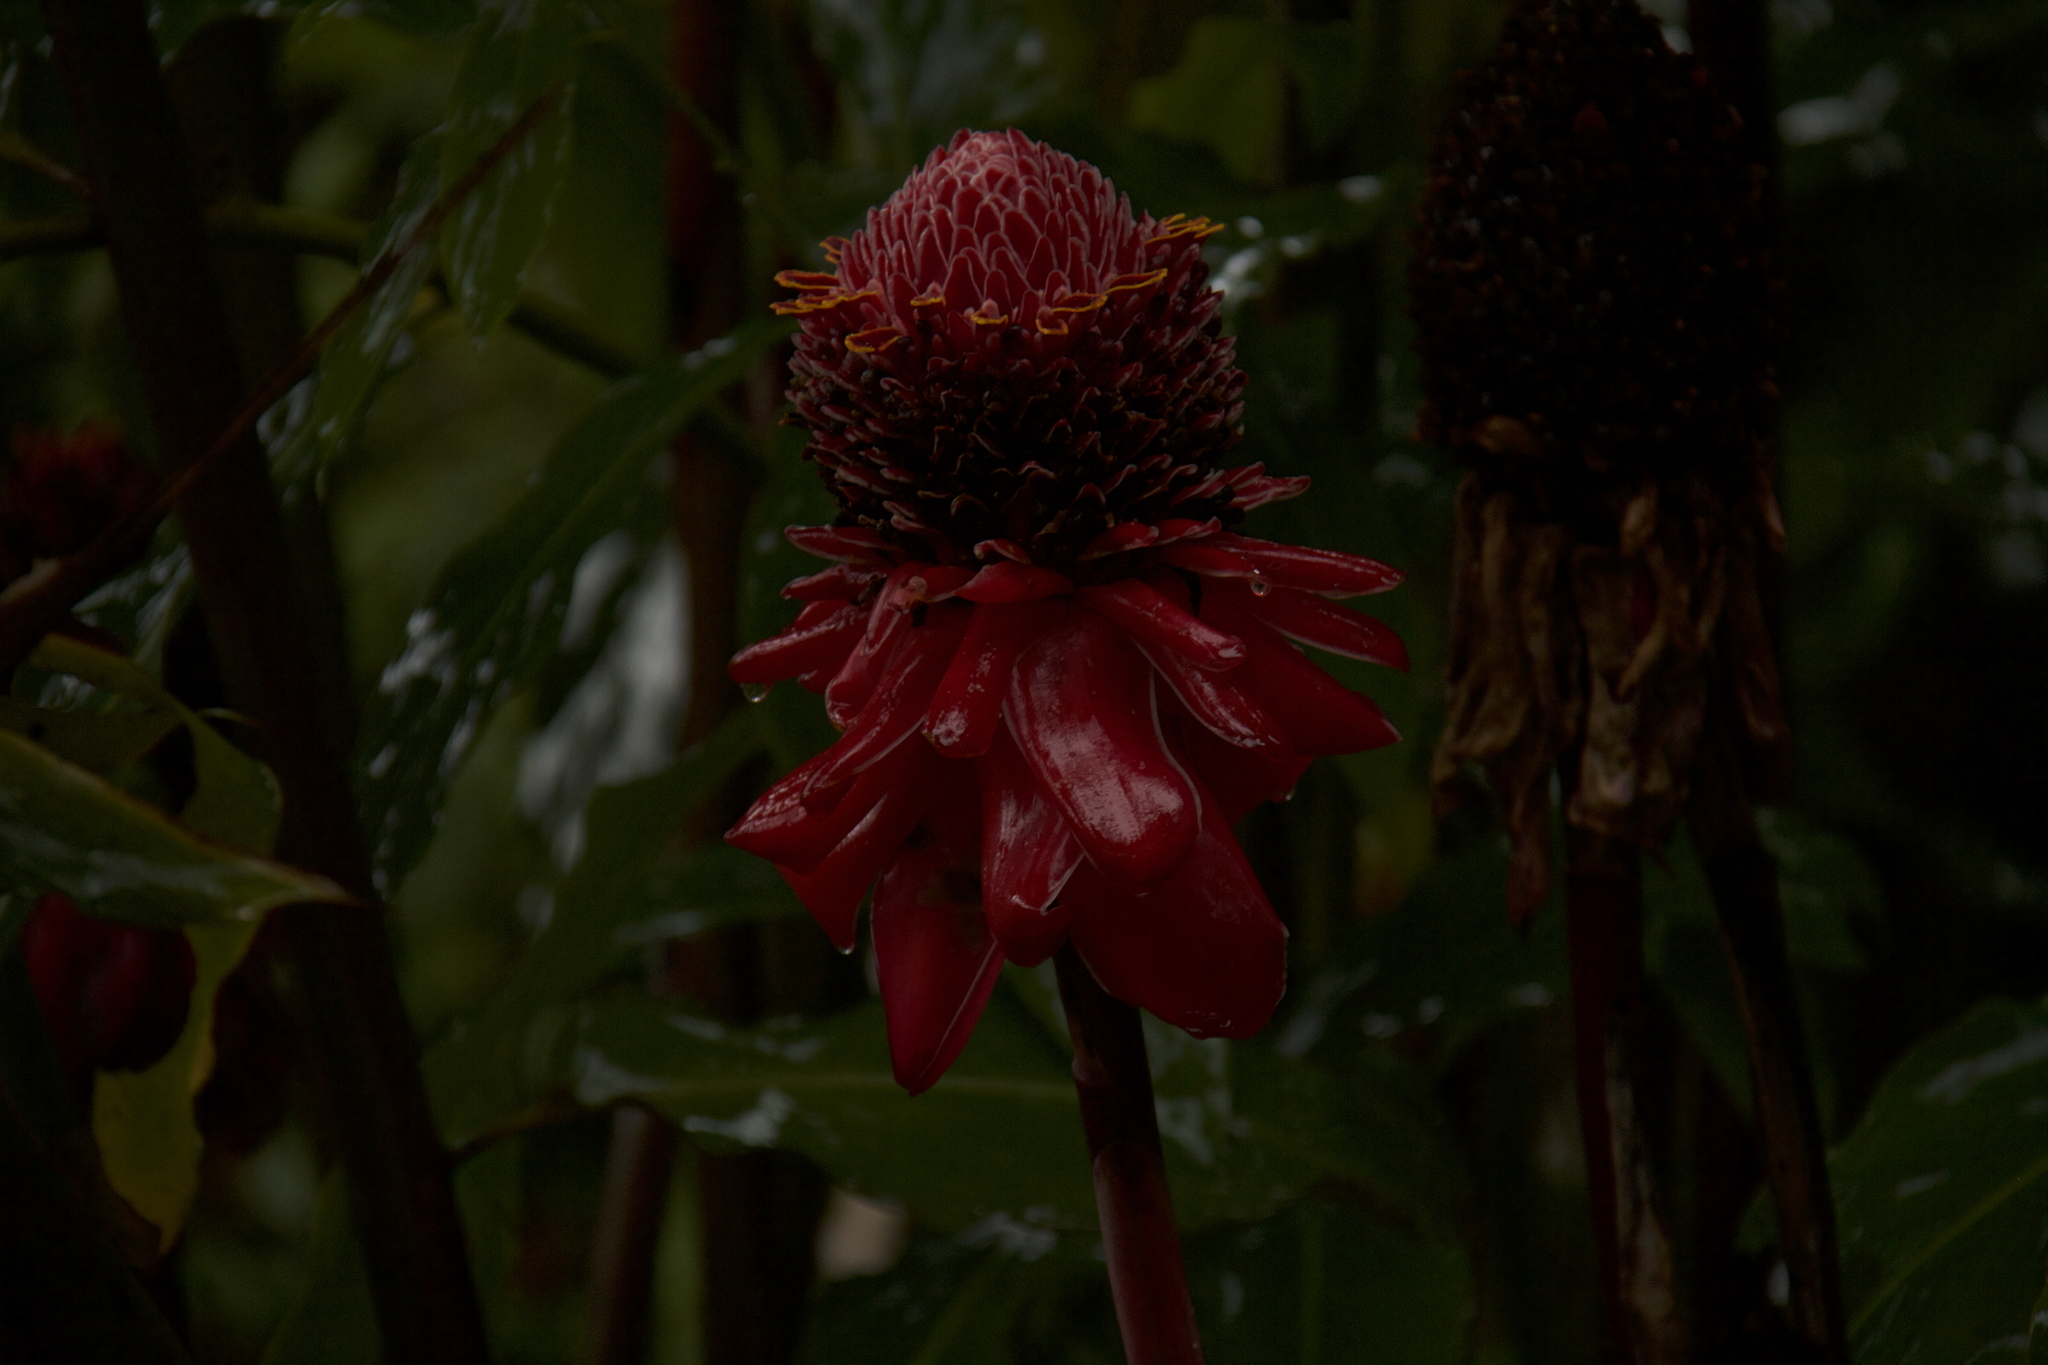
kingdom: Plantae
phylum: Tracheophyta
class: Liliopsida
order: Zingiberales
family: Zingiberaceae
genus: Etlingera
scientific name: Etlingera elatior
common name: Philippine waxflower
